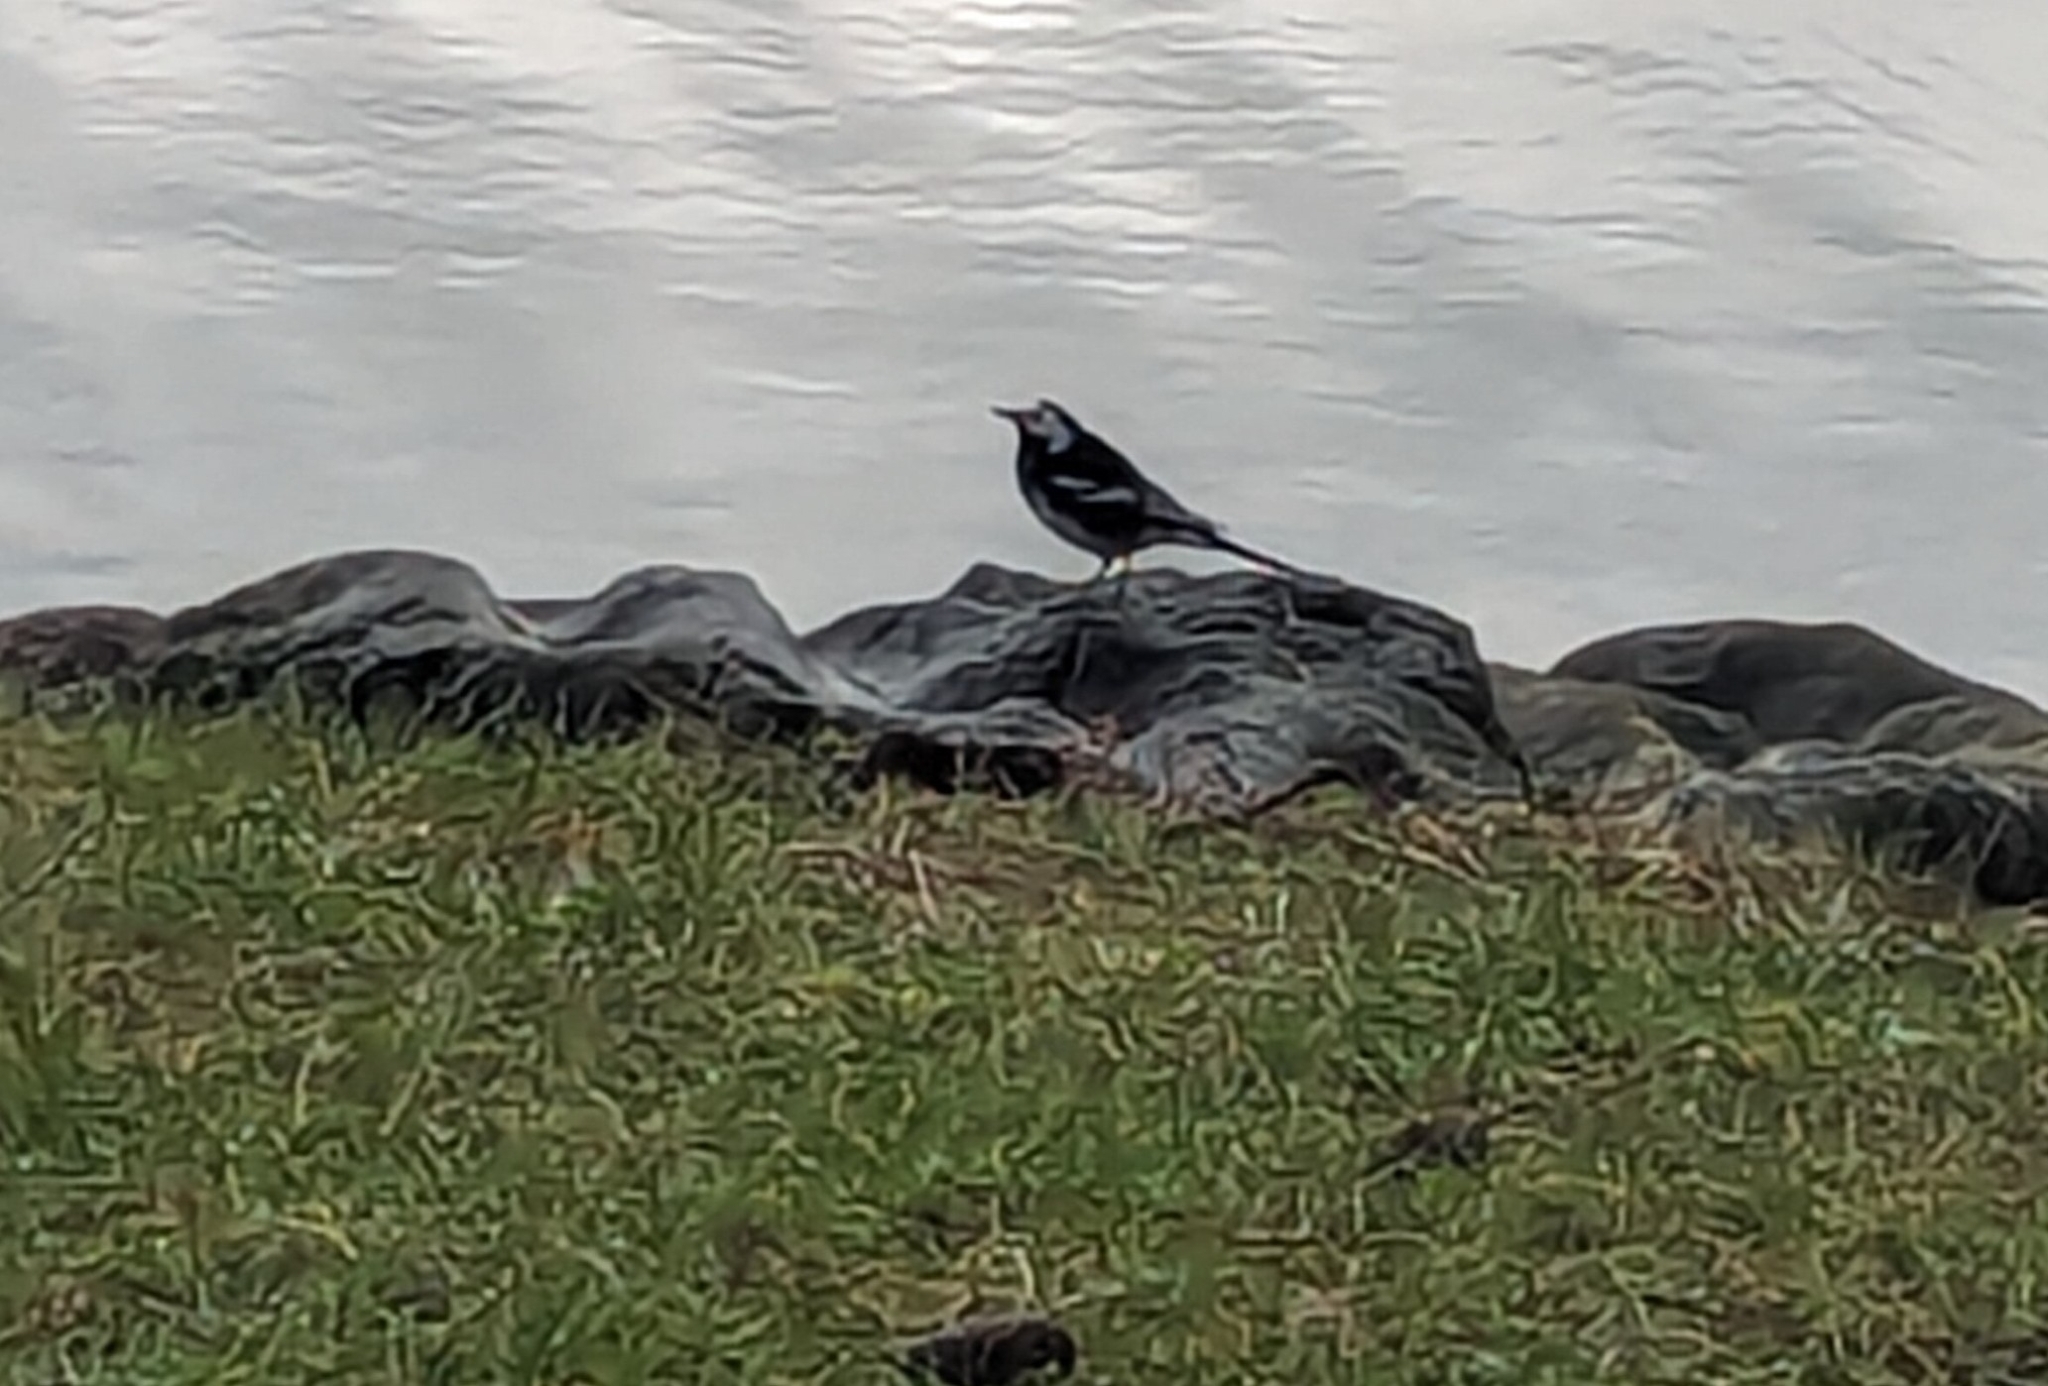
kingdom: Animalia
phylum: Chordata
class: Aves
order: Passeriformes
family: Motacillidae
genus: Motacilla
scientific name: Motacilla alba
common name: White wagtail
